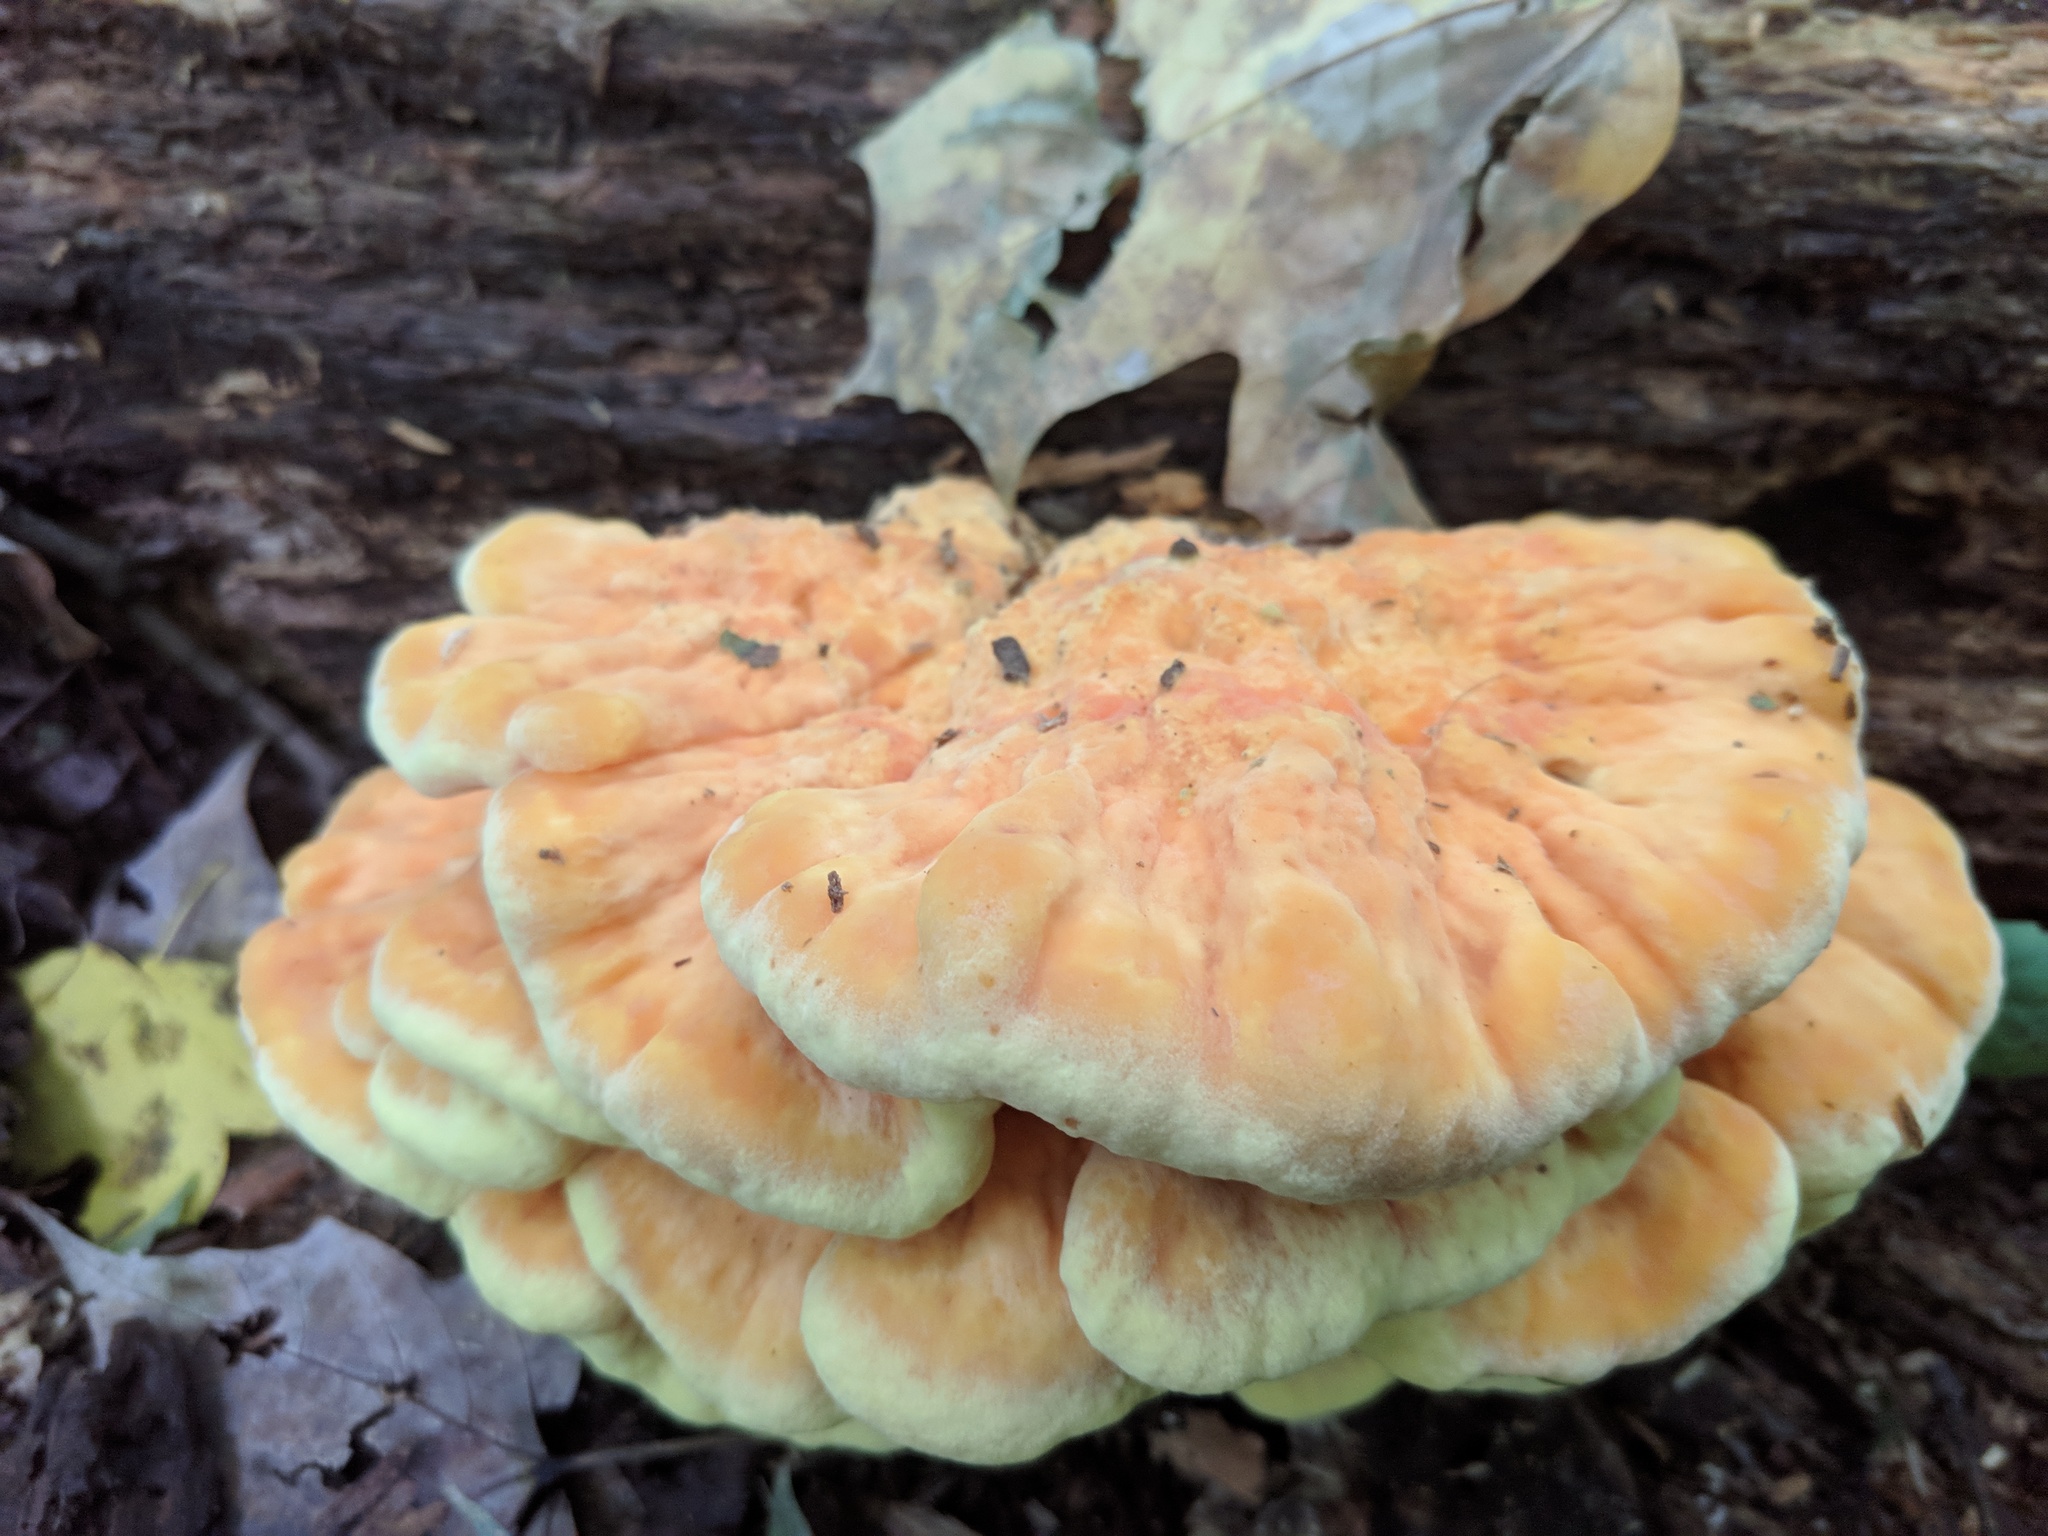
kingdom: Fungi
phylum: Basidiomycota
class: Agaricomycetes
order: Polyporales
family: Laetiporaceae
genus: Laetiporus
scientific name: Laetiporus sulphureus
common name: Chicken of the woods
